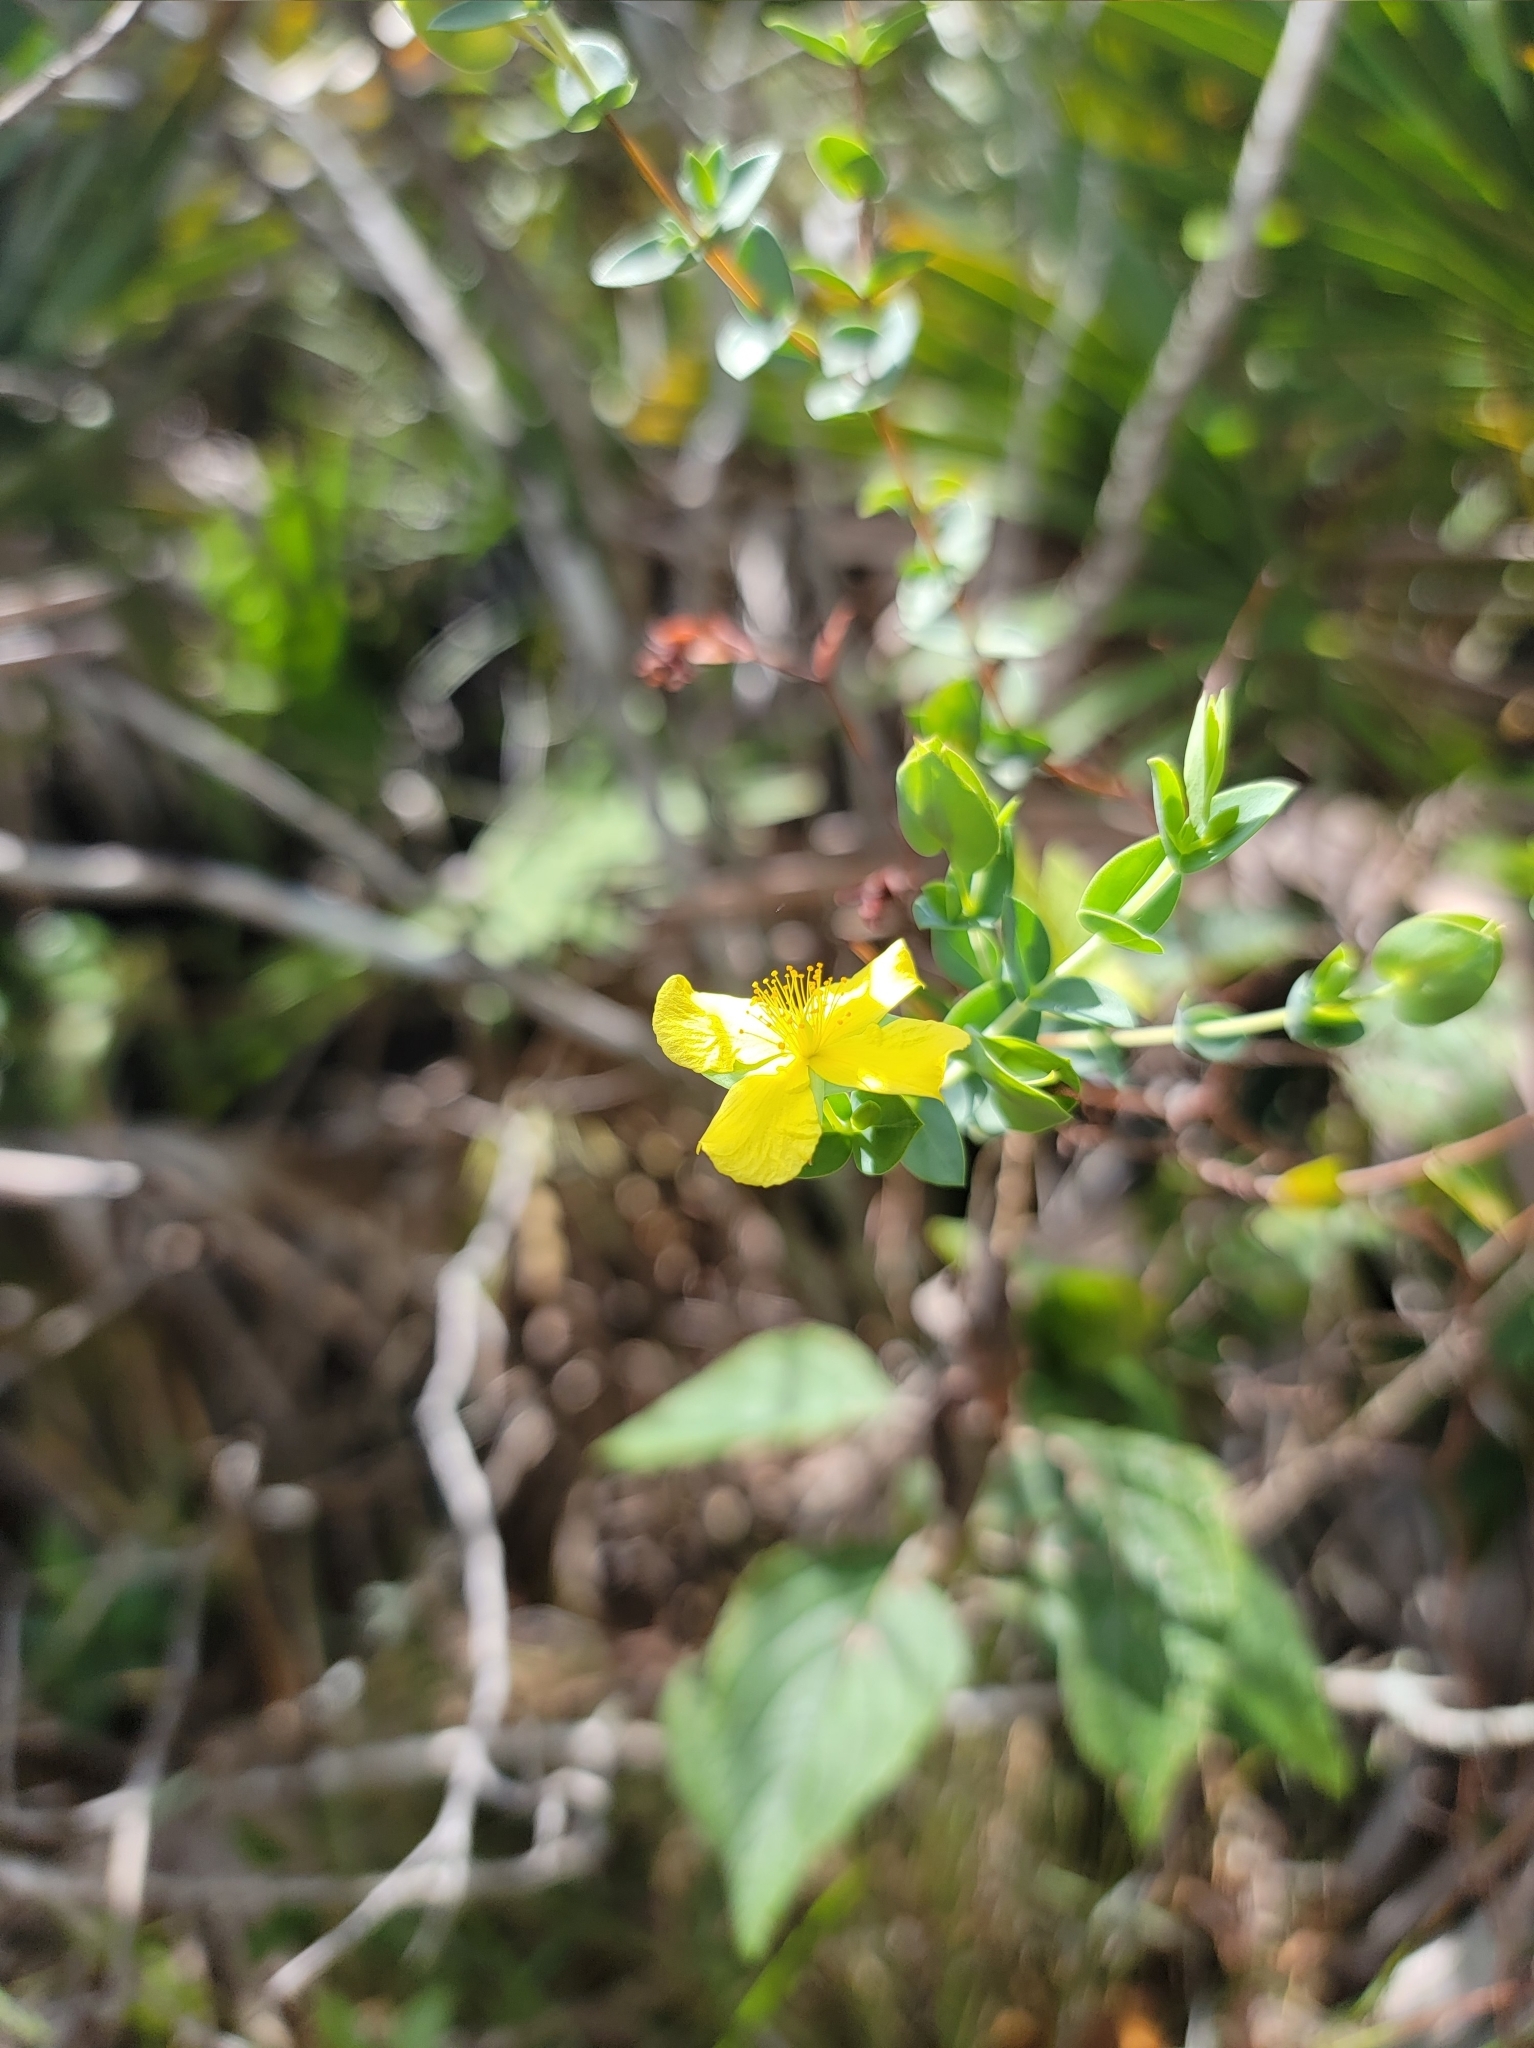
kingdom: Plantae
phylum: Tracheophyta
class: Magnoliopsida
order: Malpighiales
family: Hypericaceae
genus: Hypericum
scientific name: Hypericum tetrapetalum
